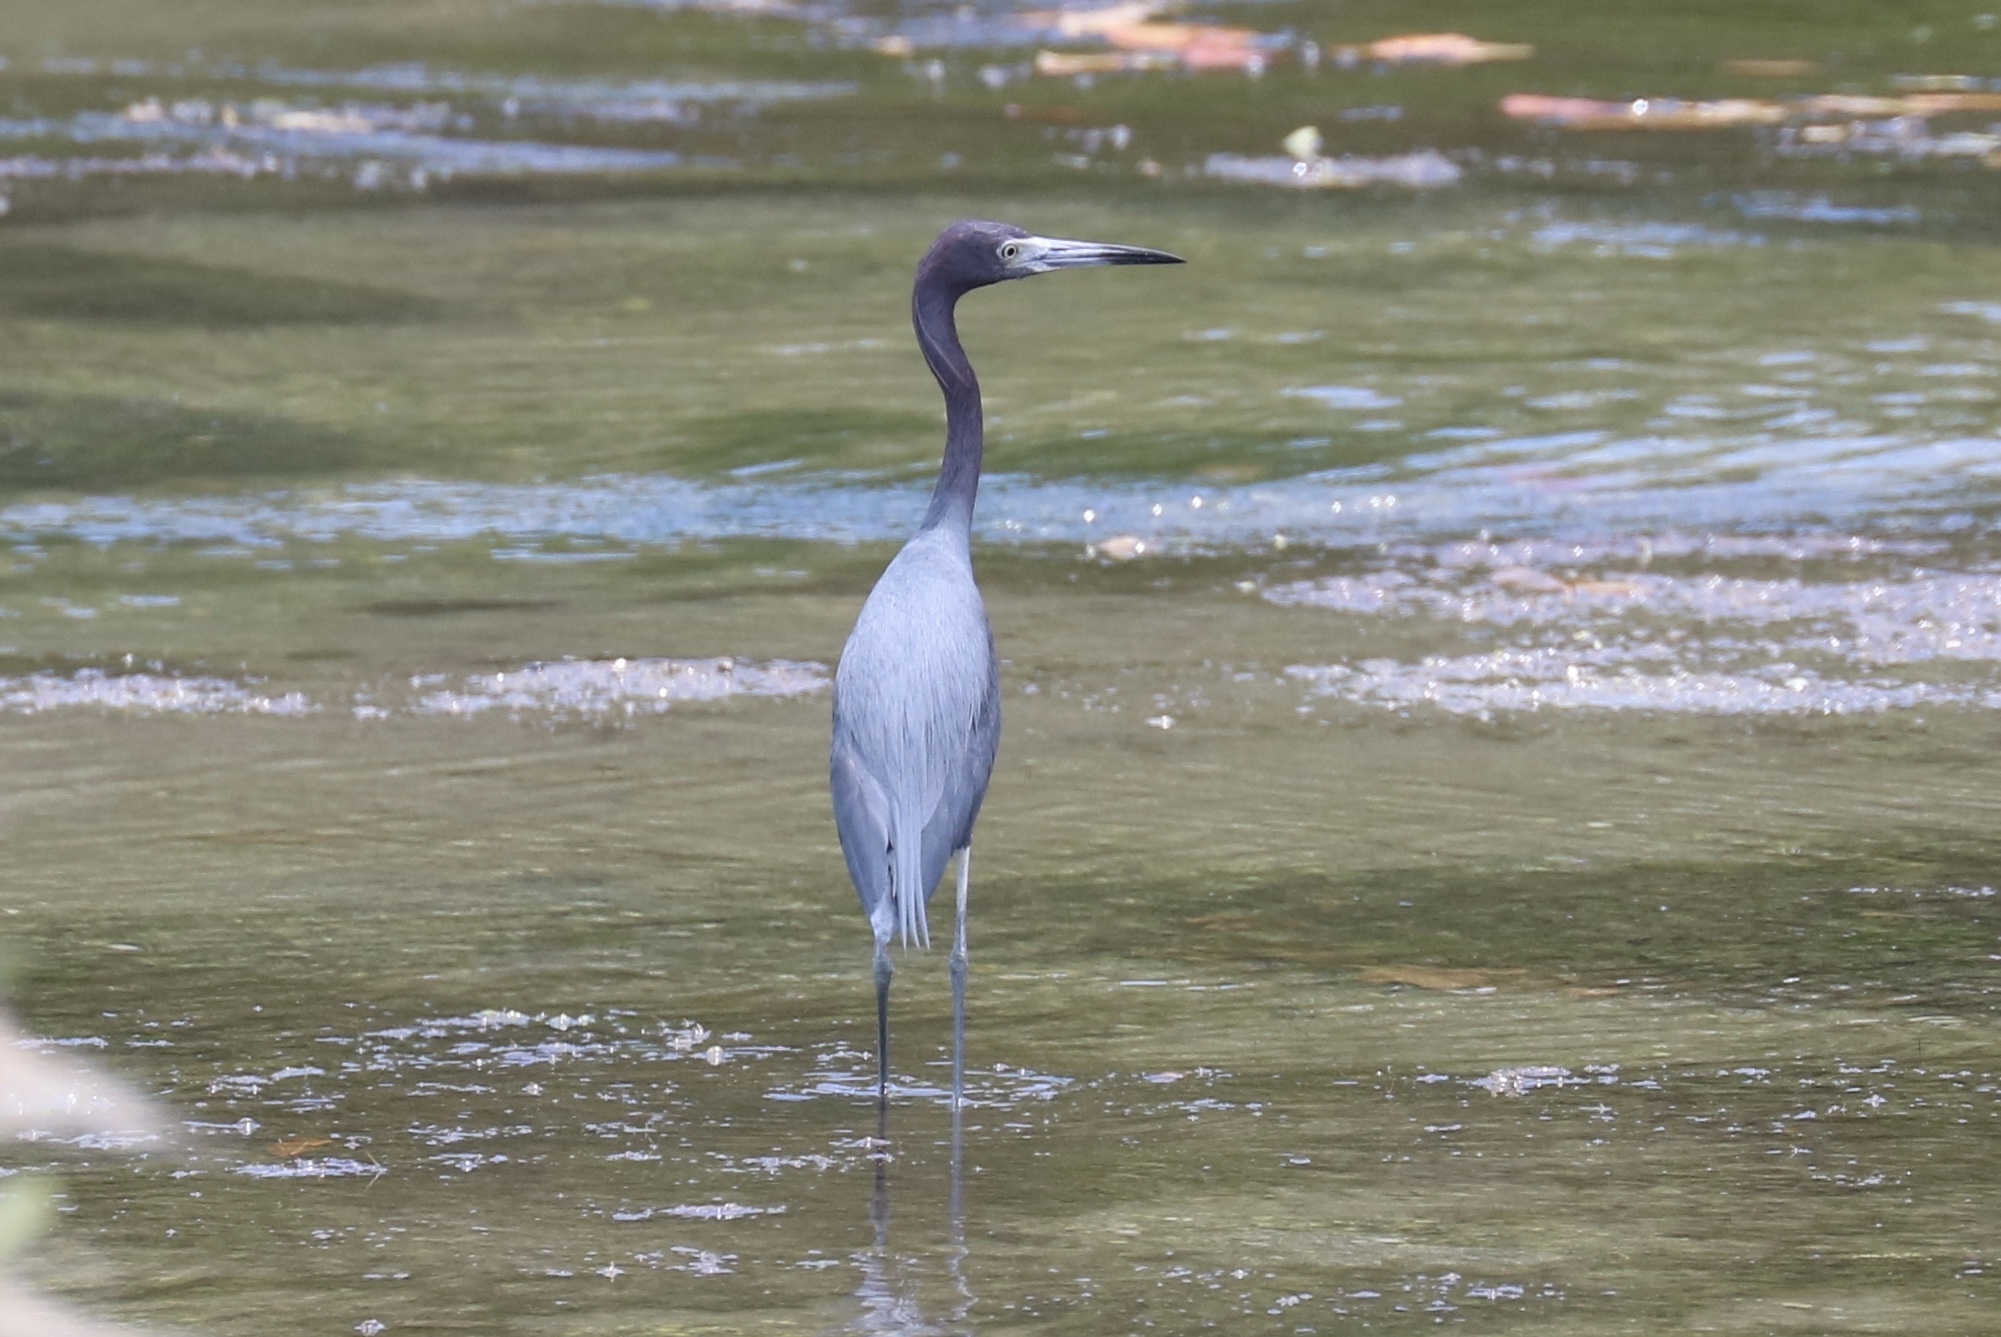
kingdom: Animalia
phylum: Chordata
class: Aves
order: Pelecaniformes
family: Ardeidae
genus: Egretta
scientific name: Egretta caerulea
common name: Little blue heron
